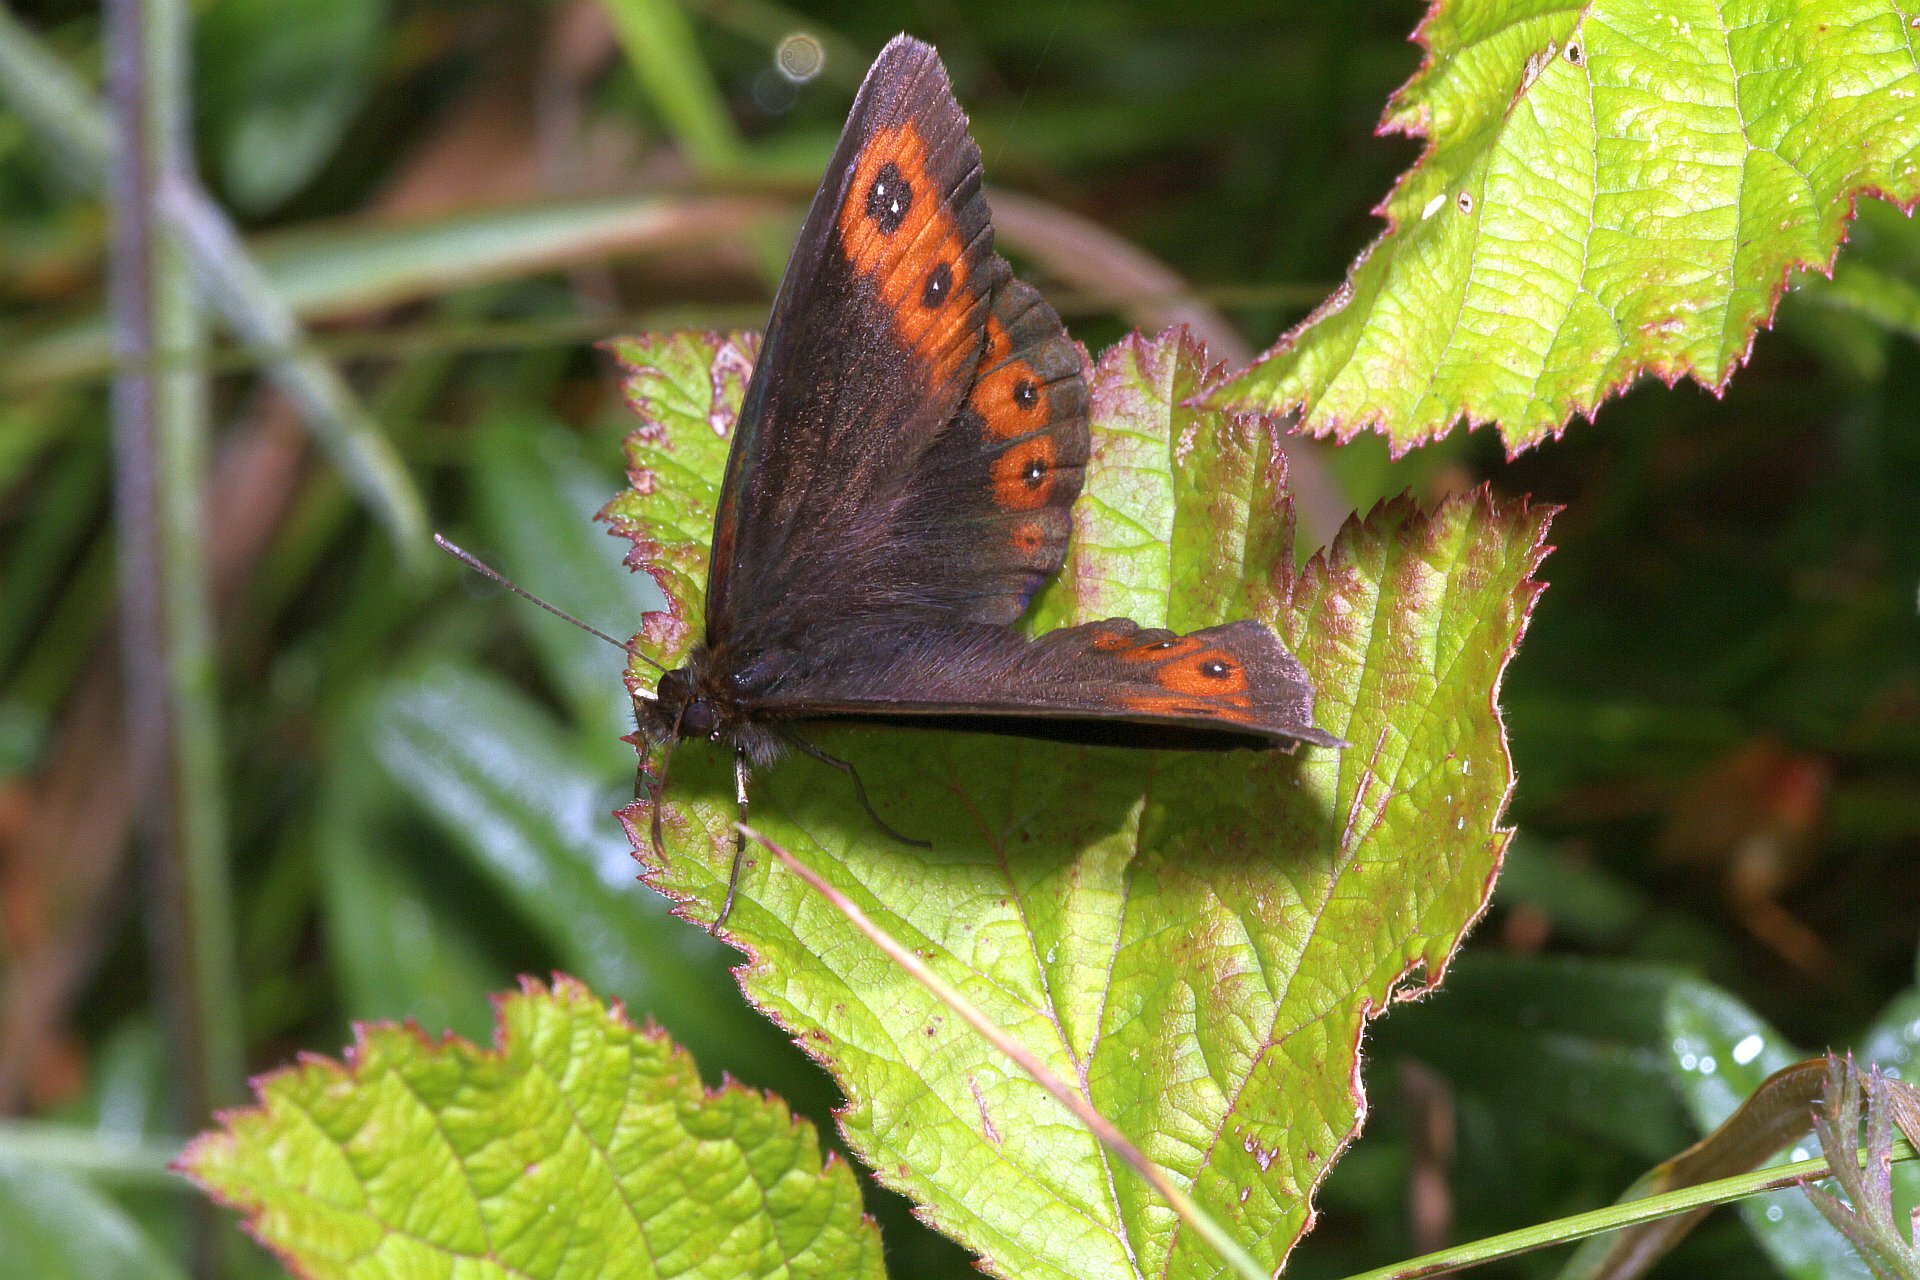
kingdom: Animalia
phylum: Arthropoda
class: Insecta
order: Lepidoptera
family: Nymphalidae
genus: Erebia
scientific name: Erebia aethiops
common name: Scotch argus
